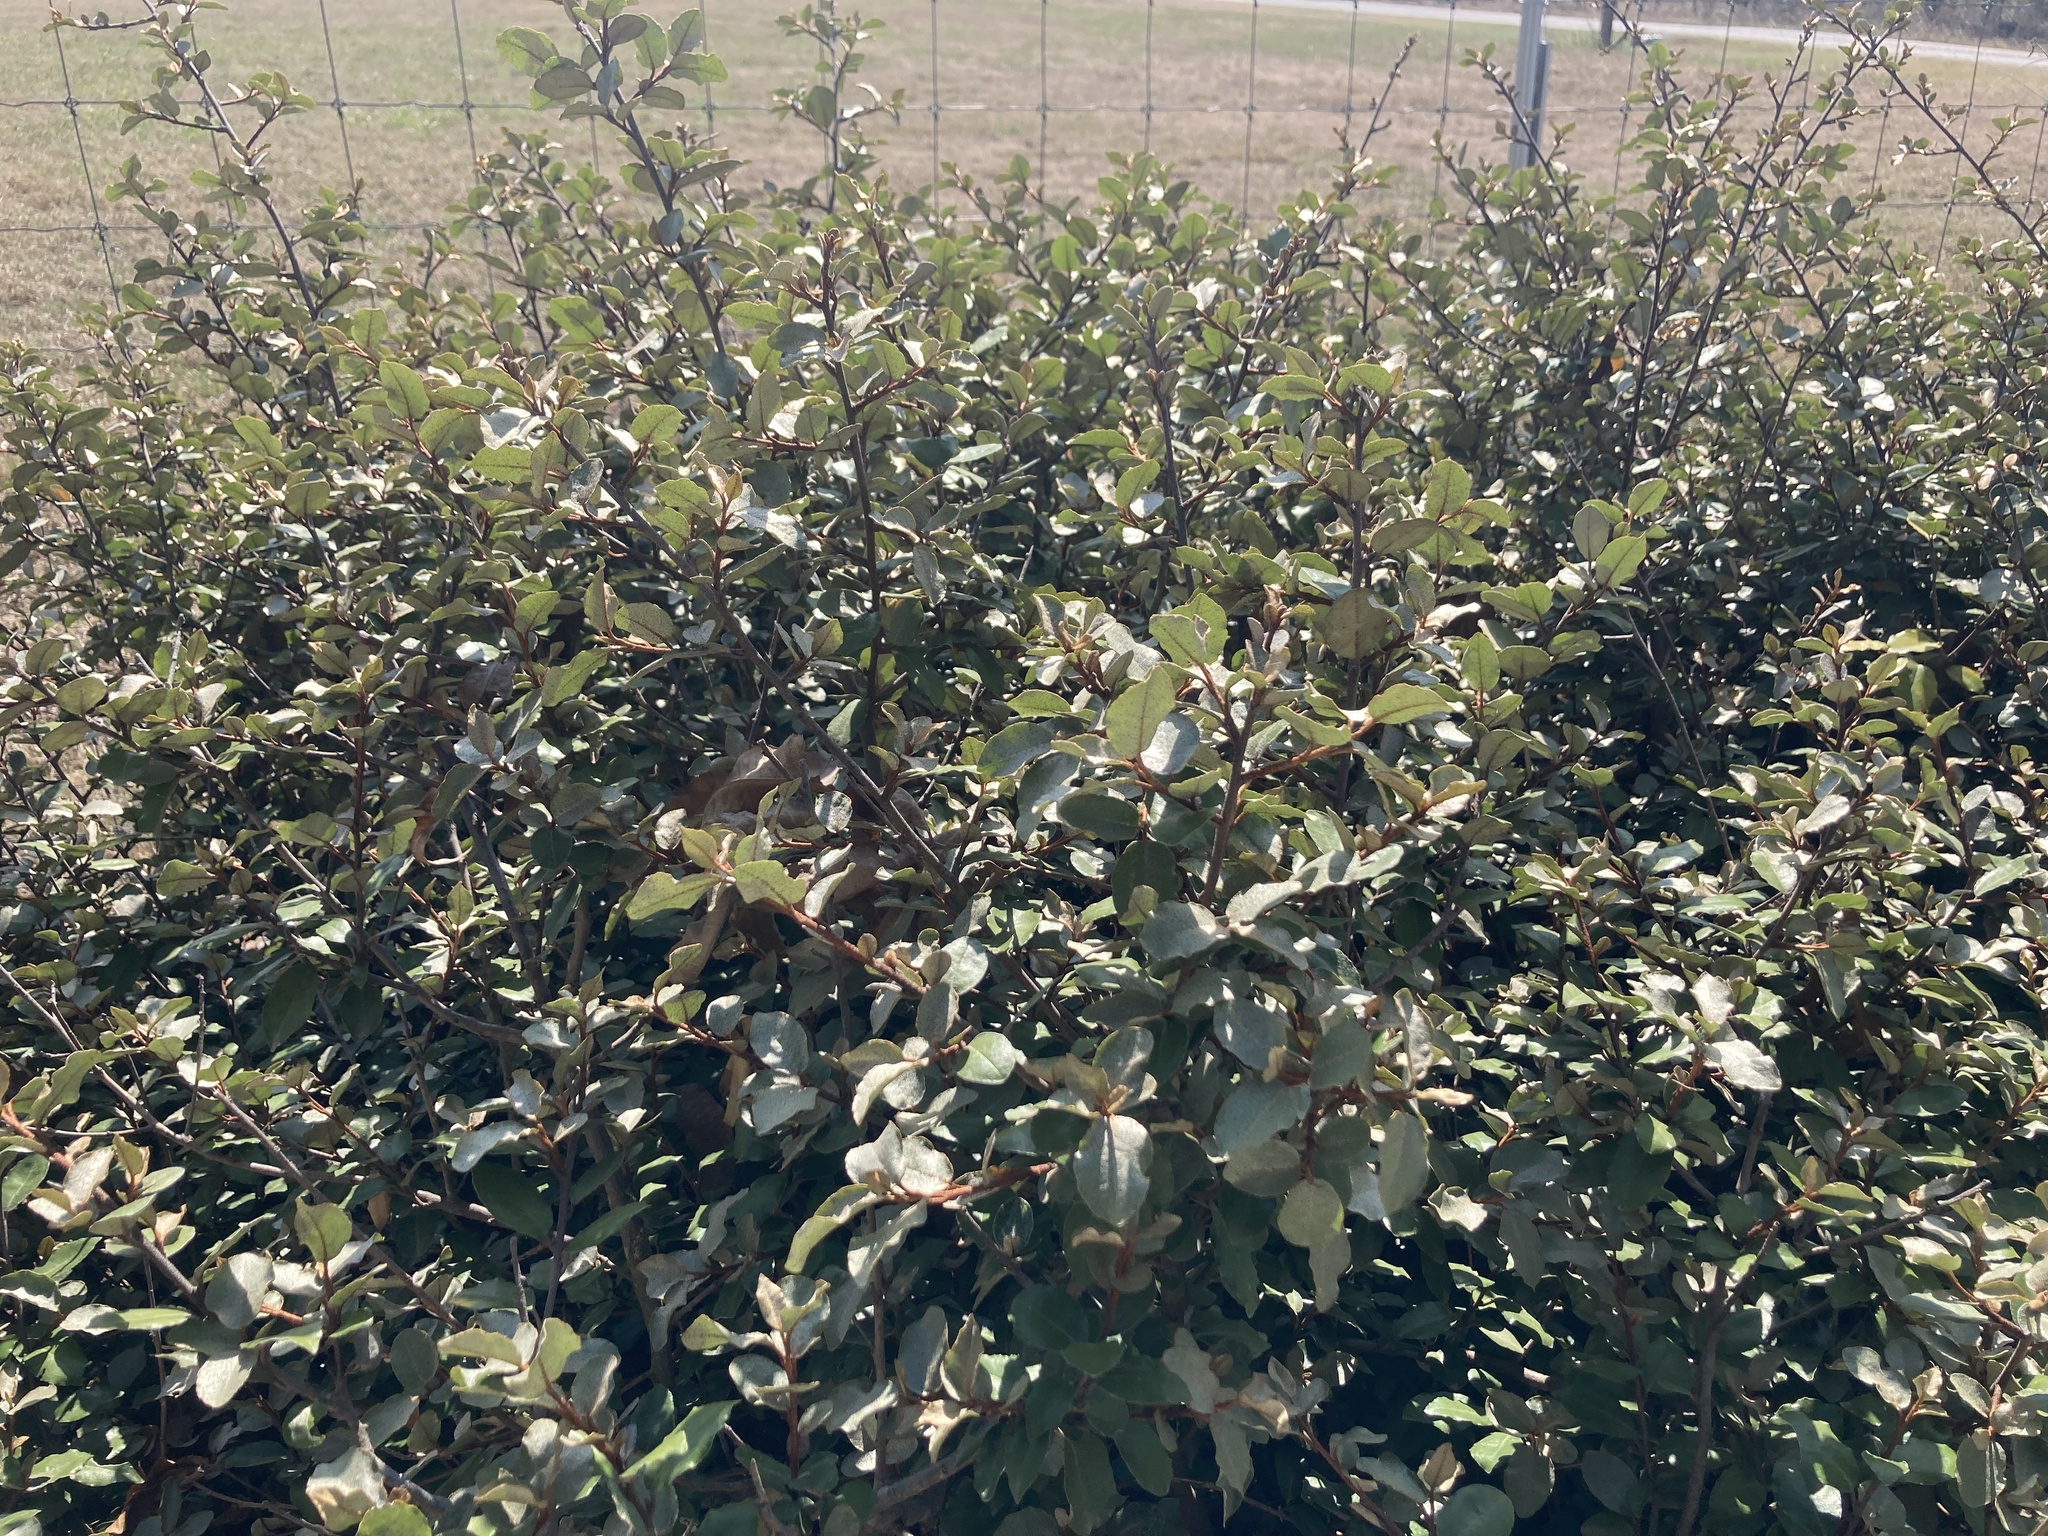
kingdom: Plantae
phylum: Tracheophyta
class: Magnoliopsida
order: Rosales
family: Elaeagnaceae
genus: Elaeagnus
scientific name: Elaeagnus pungens
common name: Spiny oleaster
